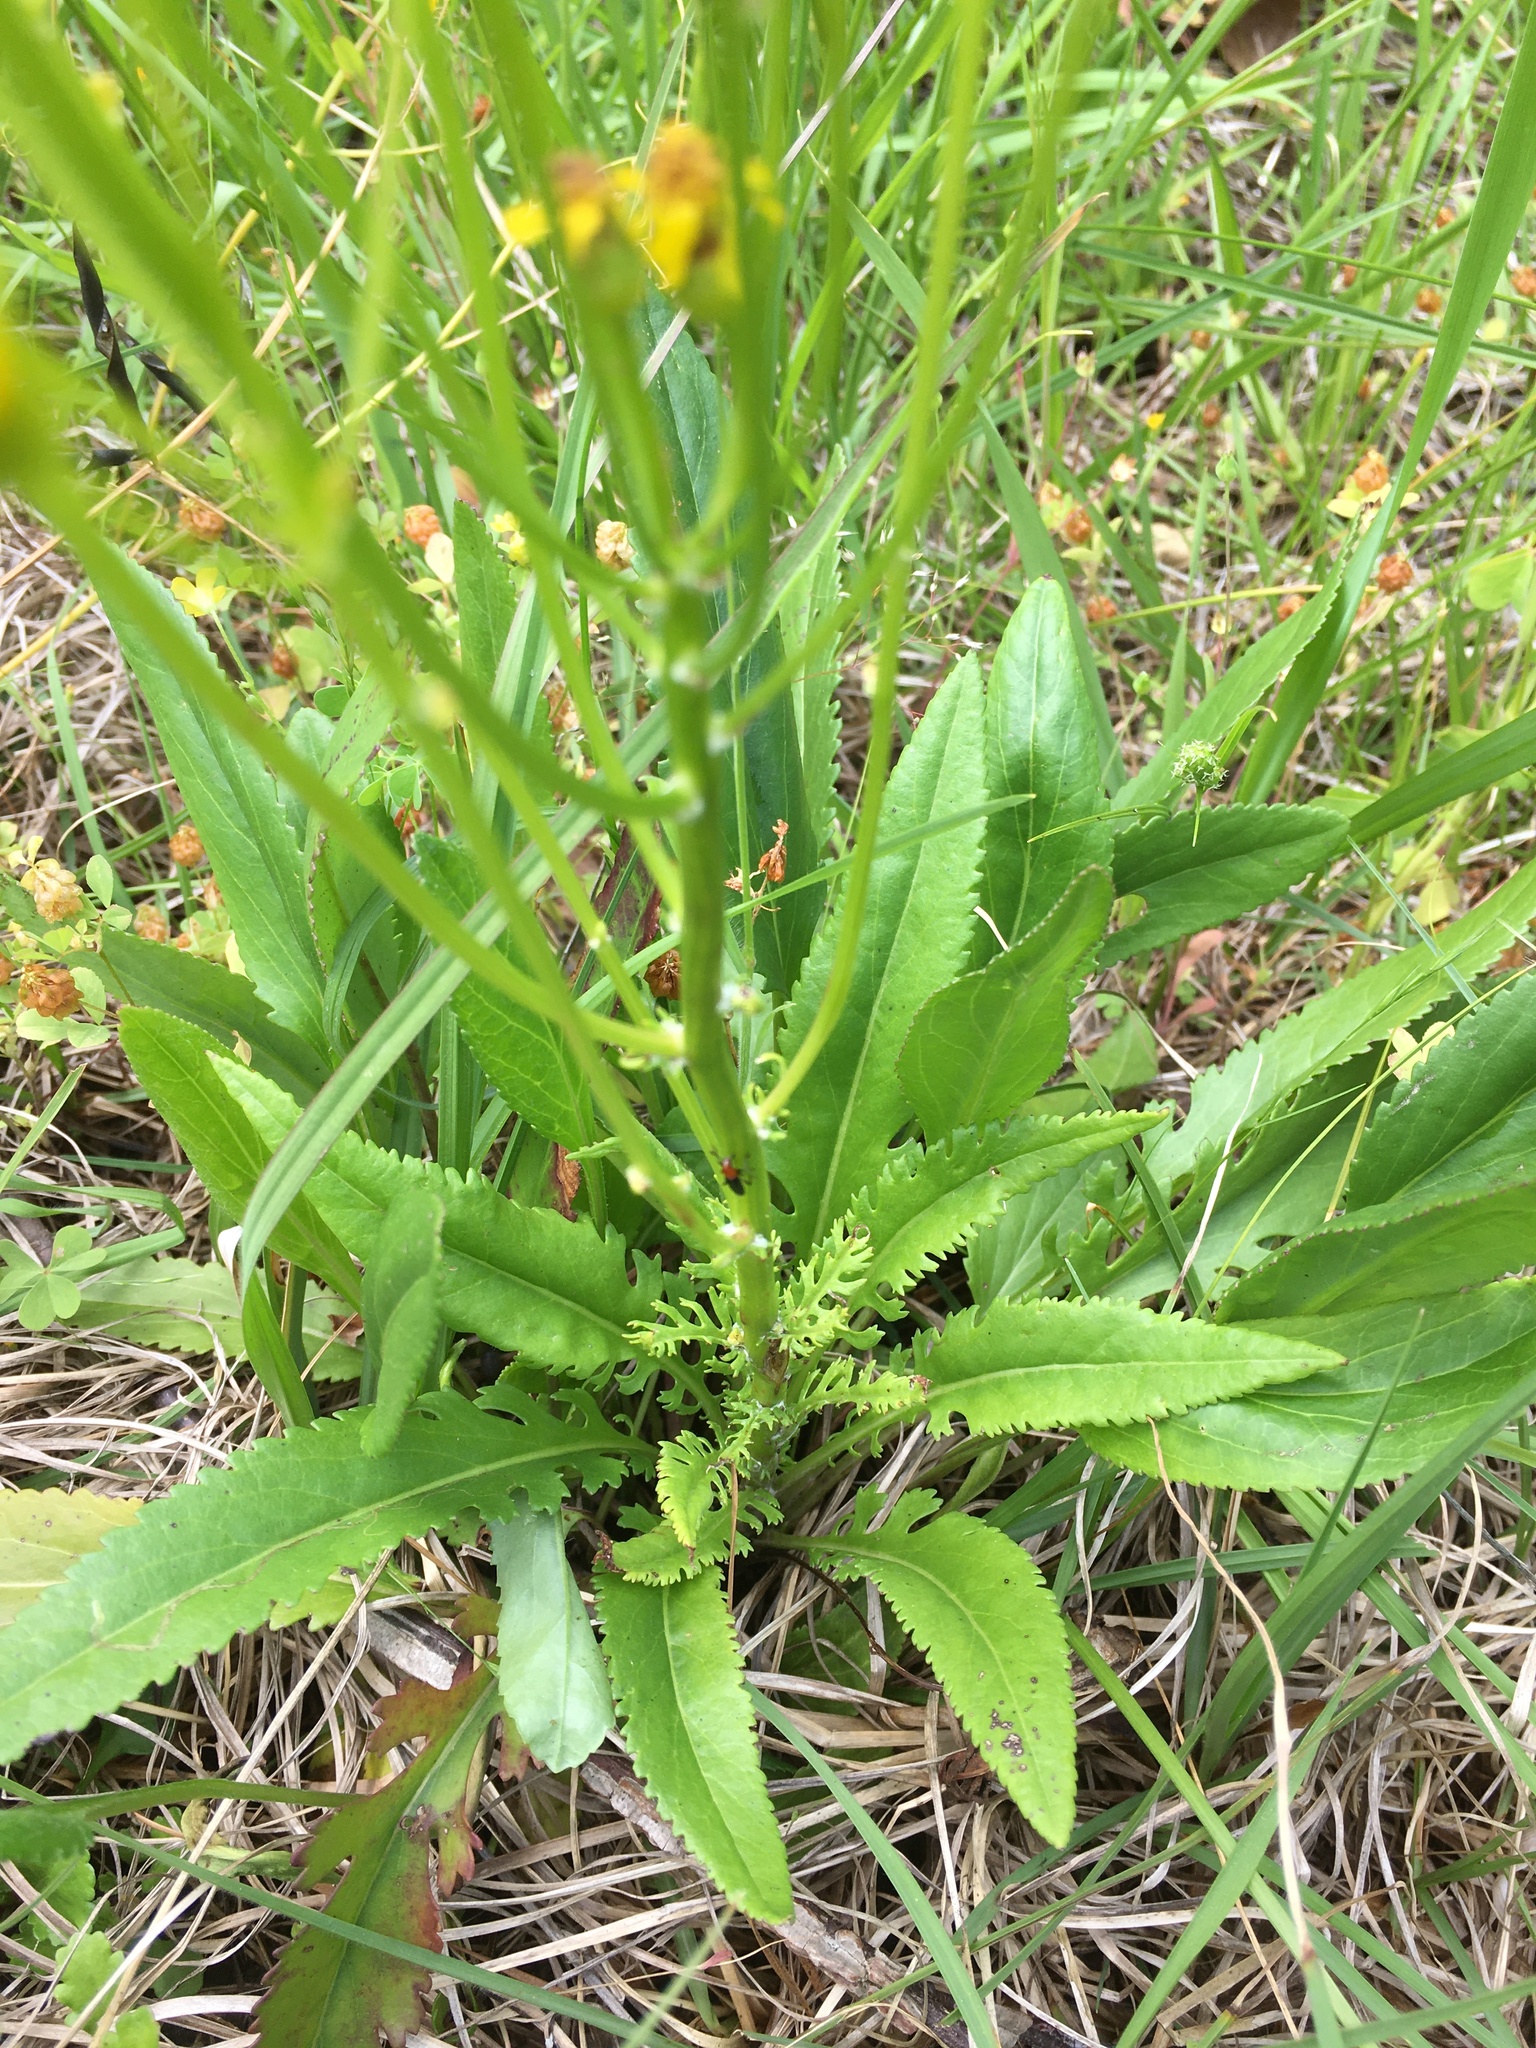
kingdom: Plantae
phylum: Tracheophyta
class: Magnoliopsida
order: Asterales
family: Asteraceae
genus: Packera
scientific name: Packera anonyma
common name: Small ragwort
